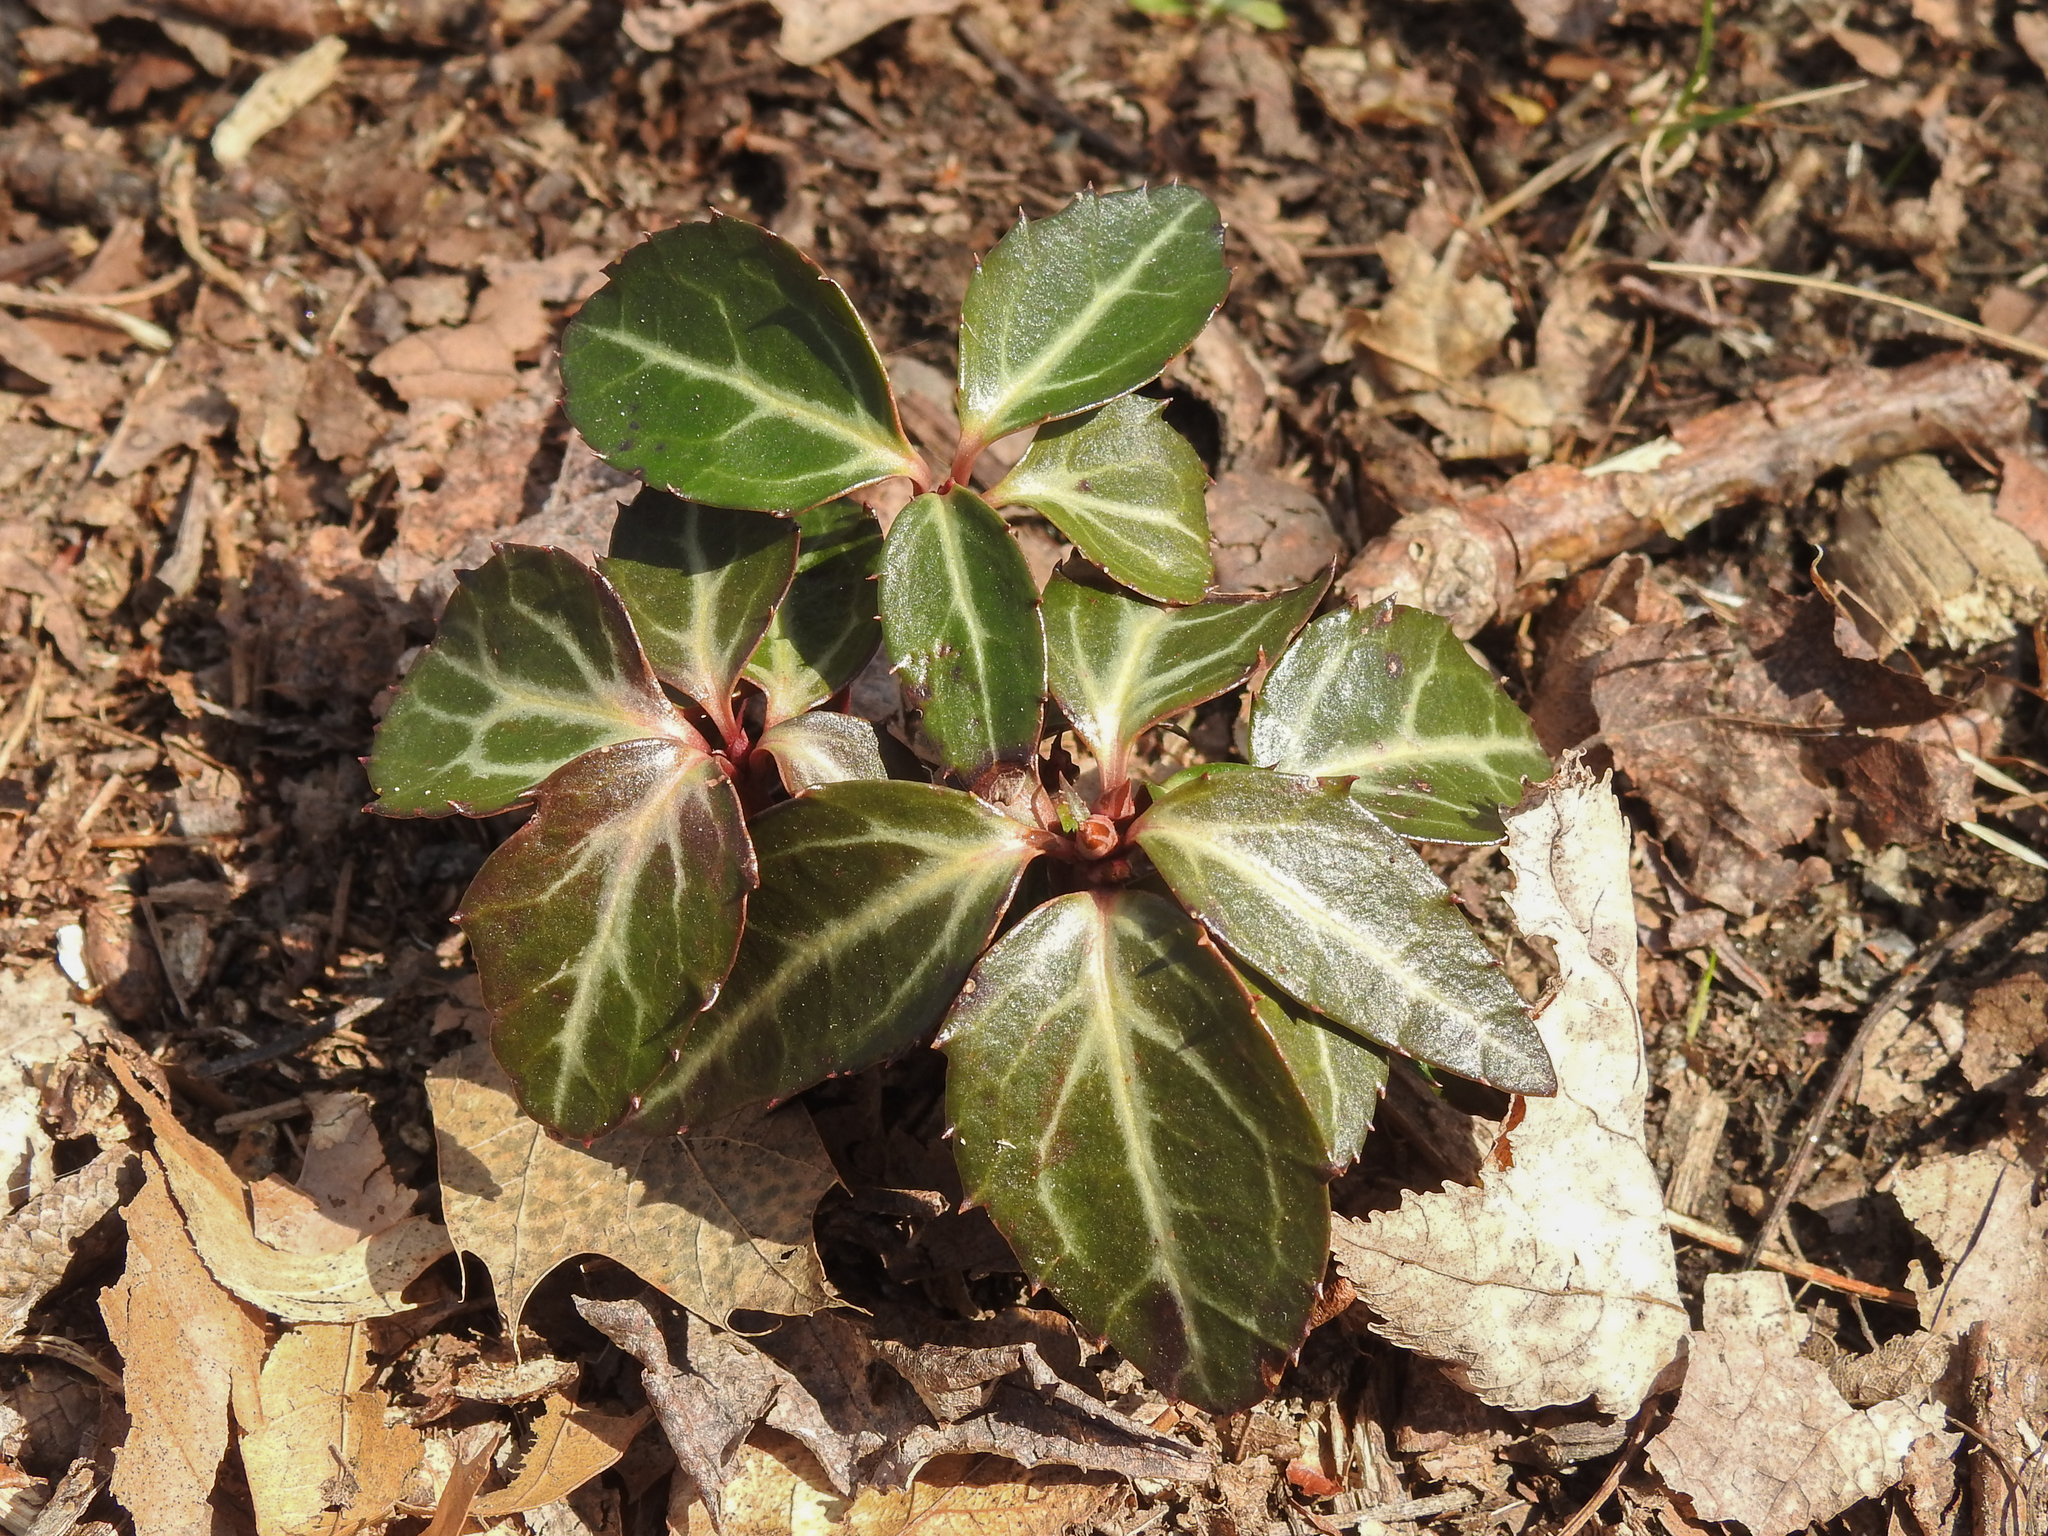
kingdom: Plantae
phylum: Tracheophyta
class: Magnoliopsida
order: Ericales
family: Ericaceae
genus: Chimaphila
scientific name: Chimaphila maculata
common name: Spotted pipsissewa
